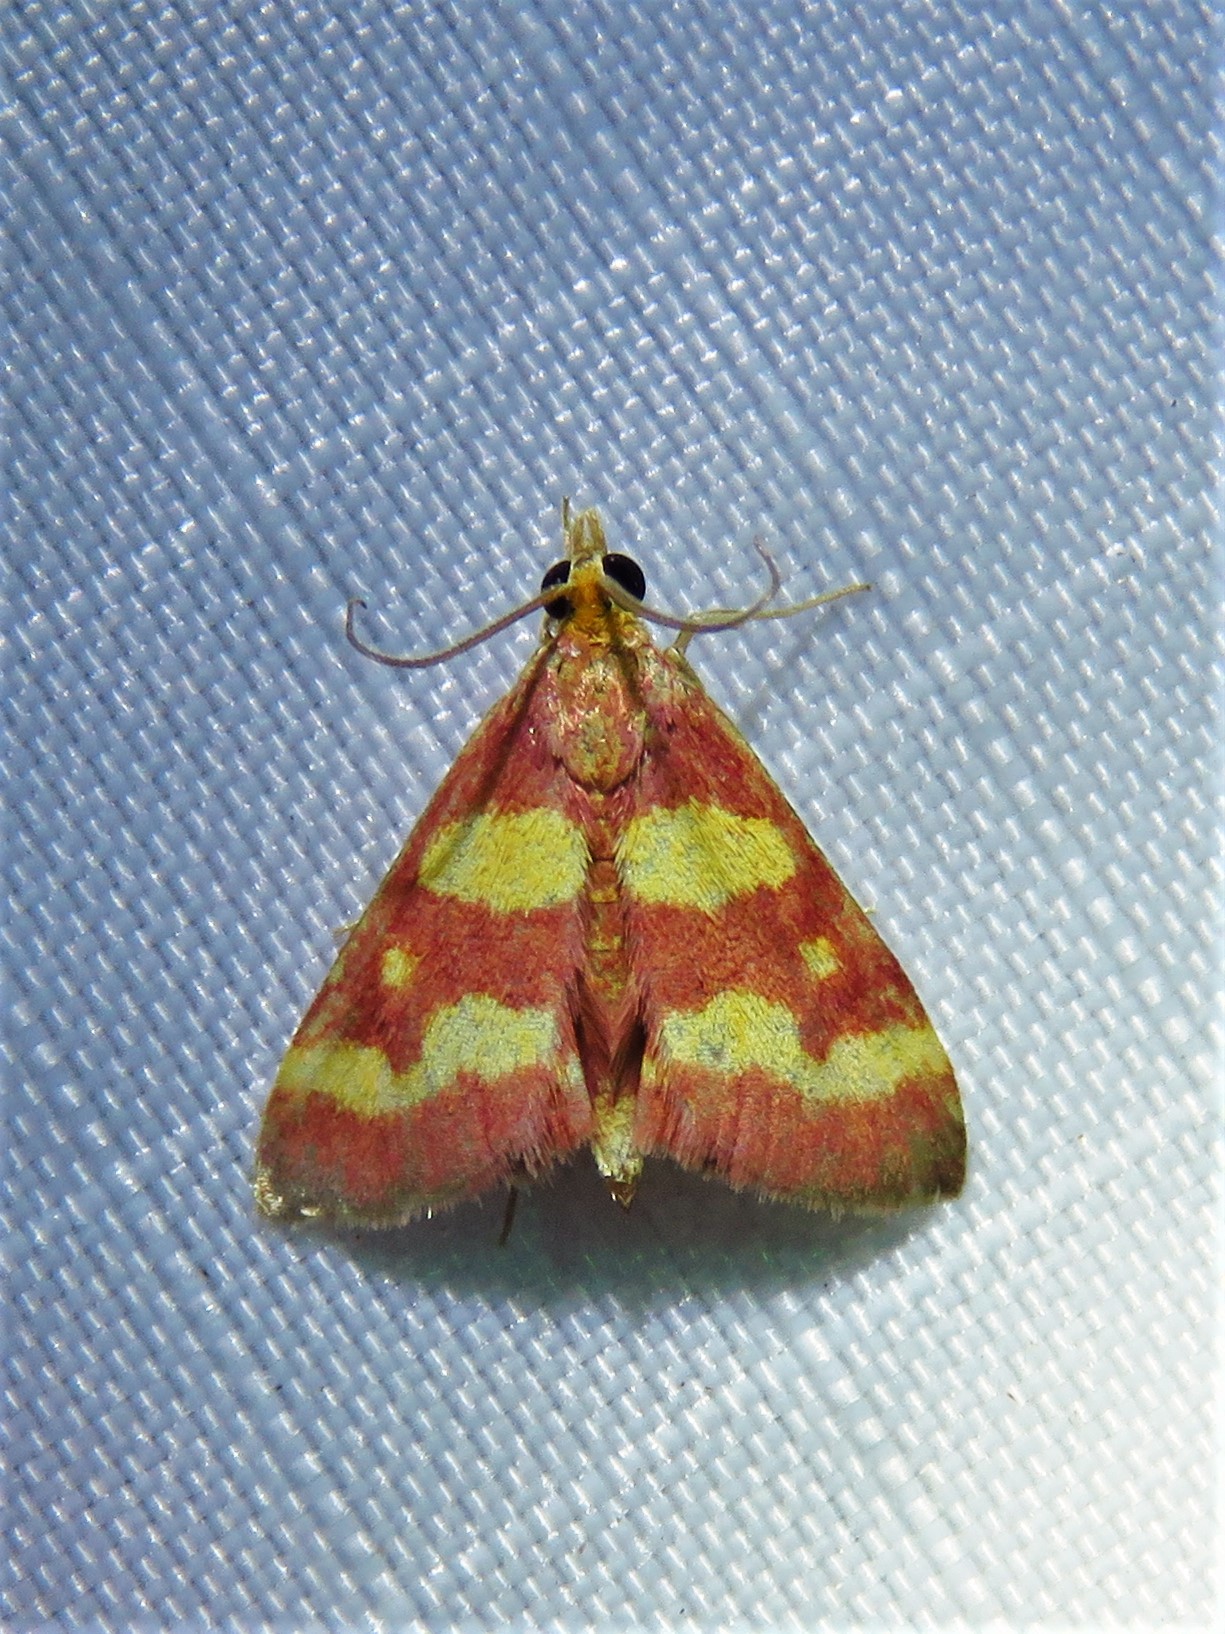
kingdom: Animalia
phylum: Arthropoda
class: Insecta
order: Lepidoptera
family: Crambidae
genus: Pyrausta
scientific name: Pyrausta tyralis
